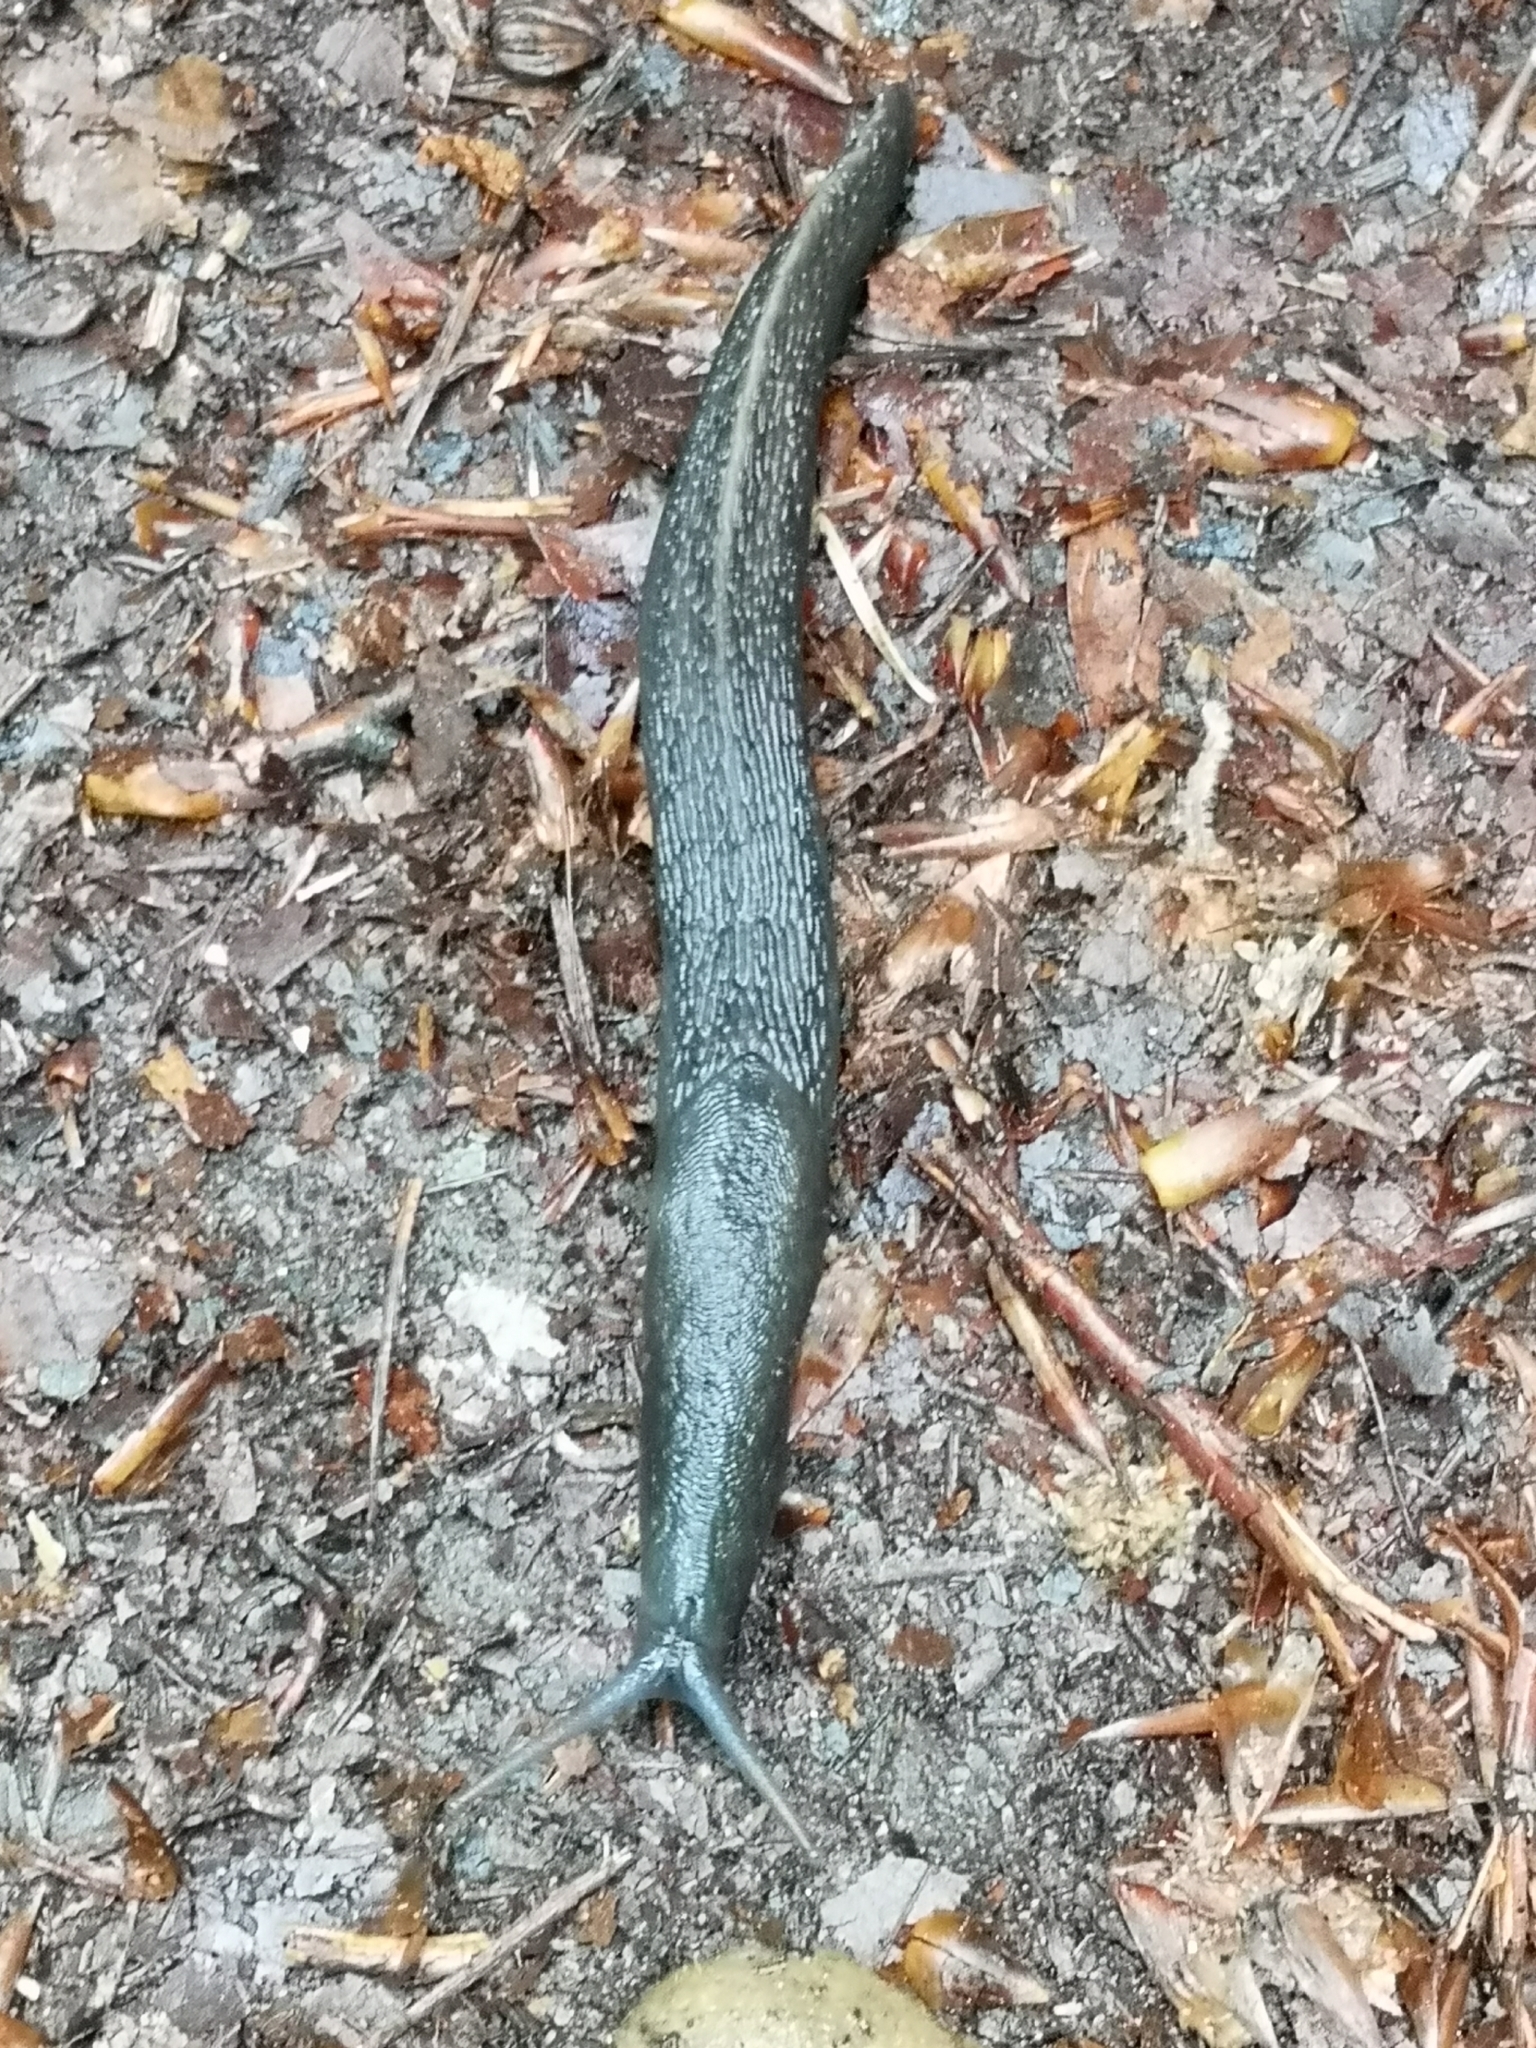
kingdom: Animalia
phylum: Mollusca
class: Gastropoda
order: Stylommatophora
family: Limacidae
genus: Limax
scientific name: Limax cinereoniger
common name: Ash-black slug
